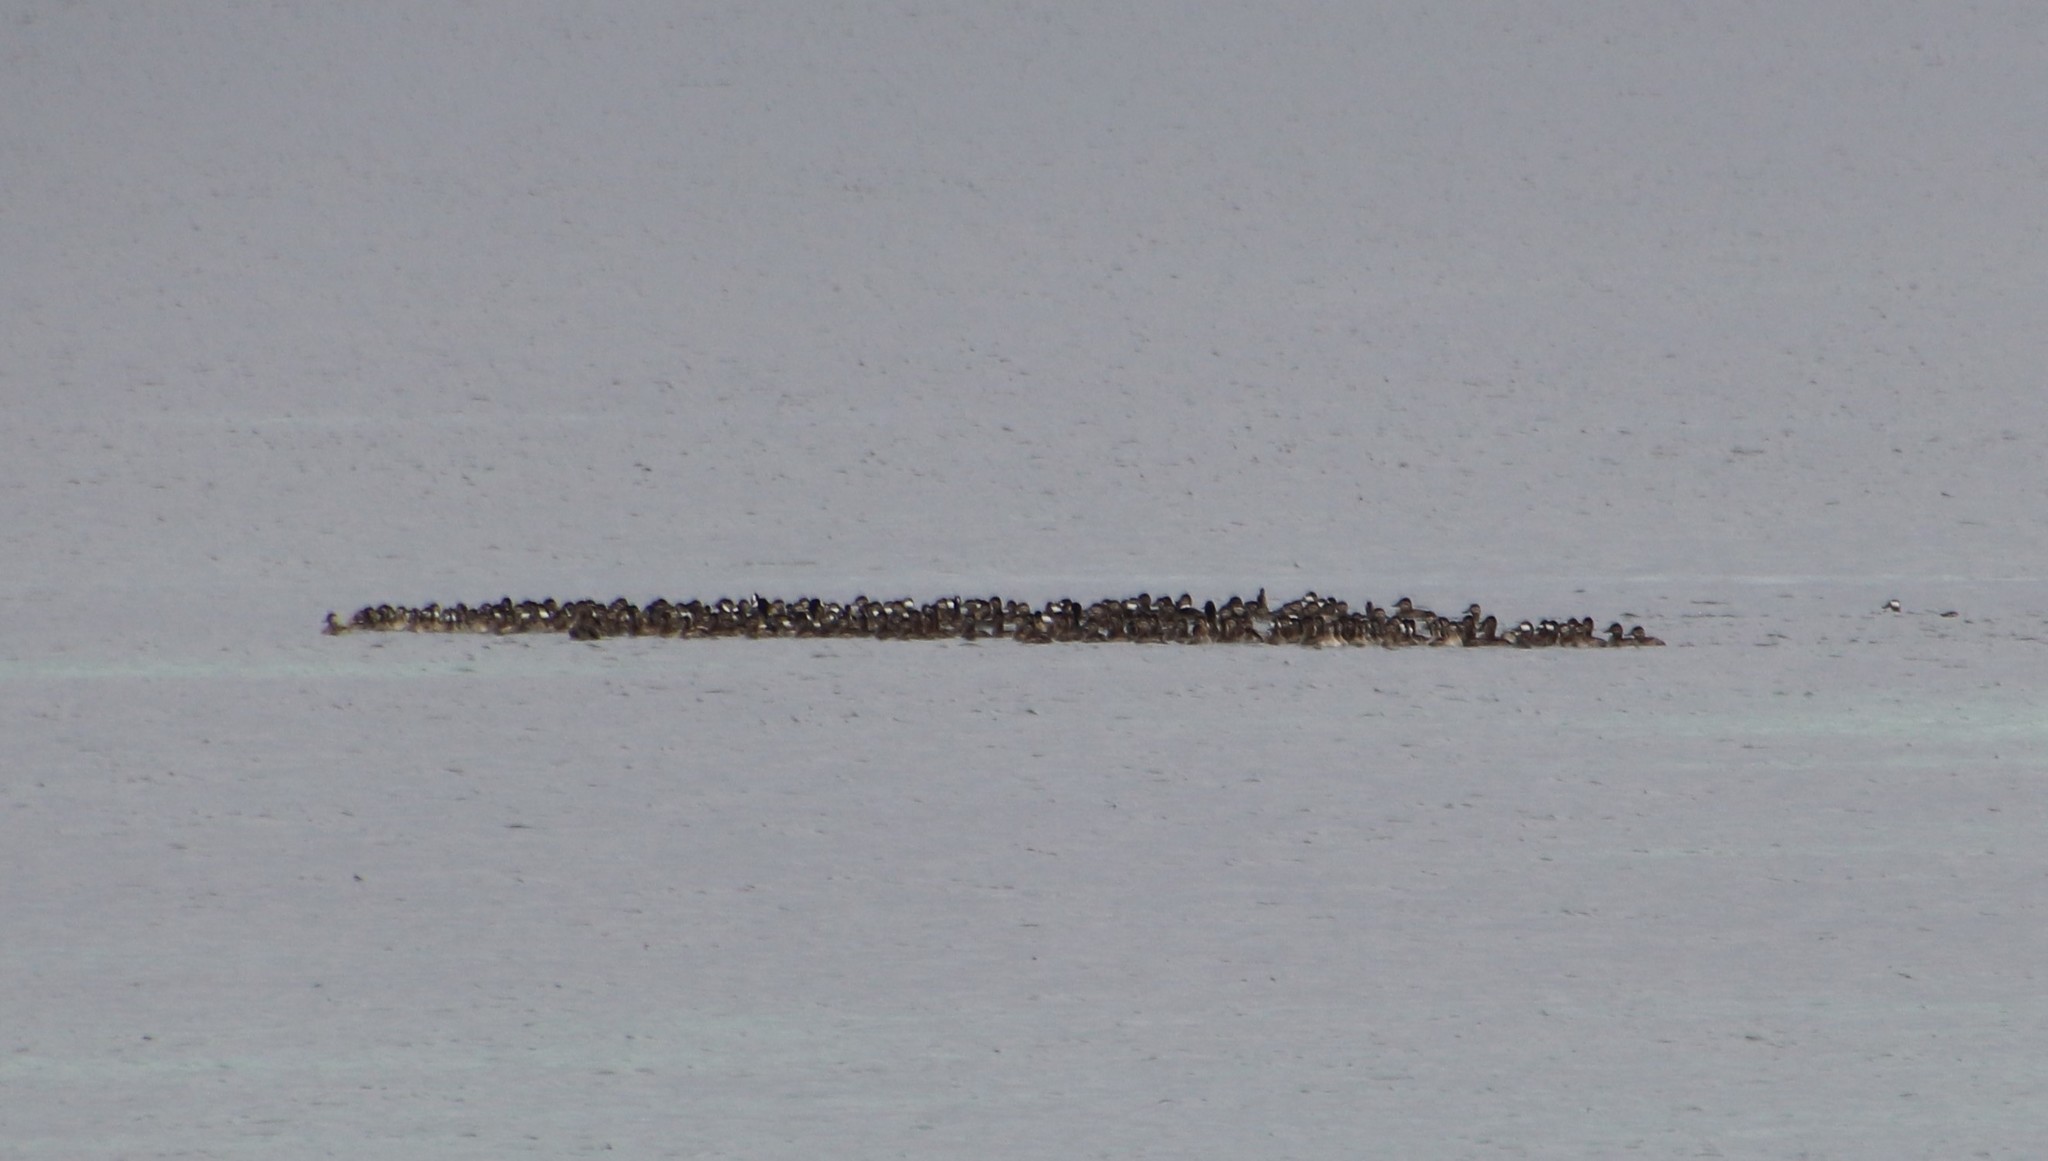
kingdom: Animalia
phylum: Chordata
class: Aves
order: Anseriformes
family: Anatidae
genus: Oxyura
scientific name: Oxyura jamaicensis
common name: Ruddy duck
